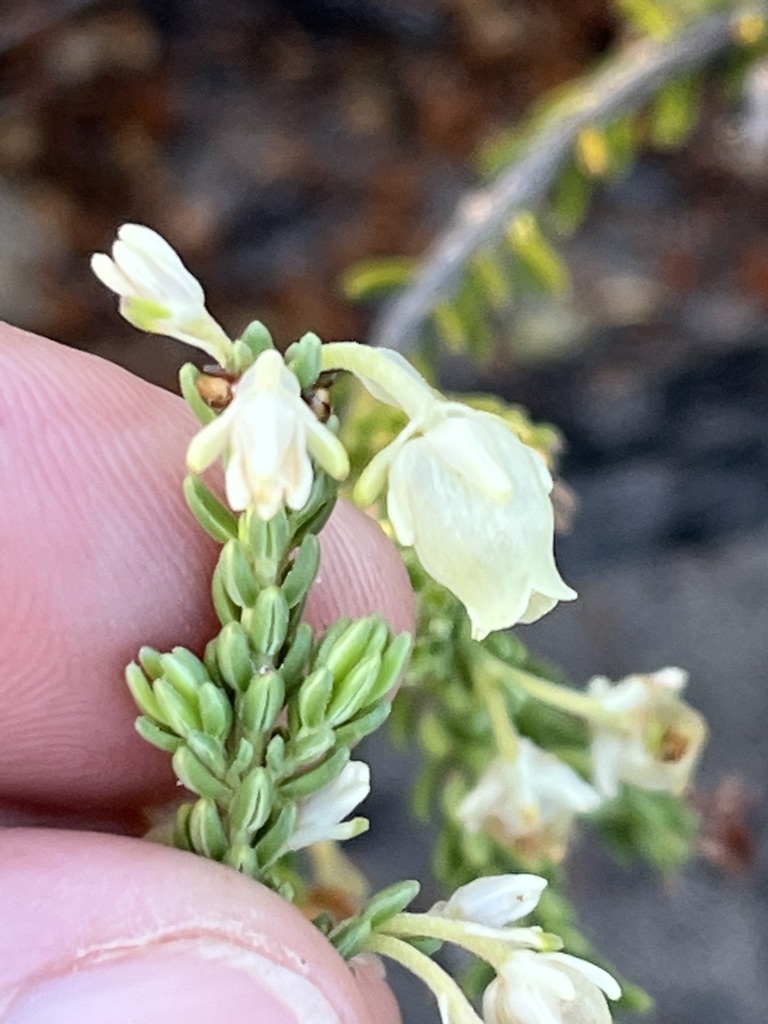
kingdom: Plantae
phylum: Tracheophyta
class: Magnoliopsida
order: Ericales
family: Ericaceae
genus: Erica
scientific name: Erica spectabilis
